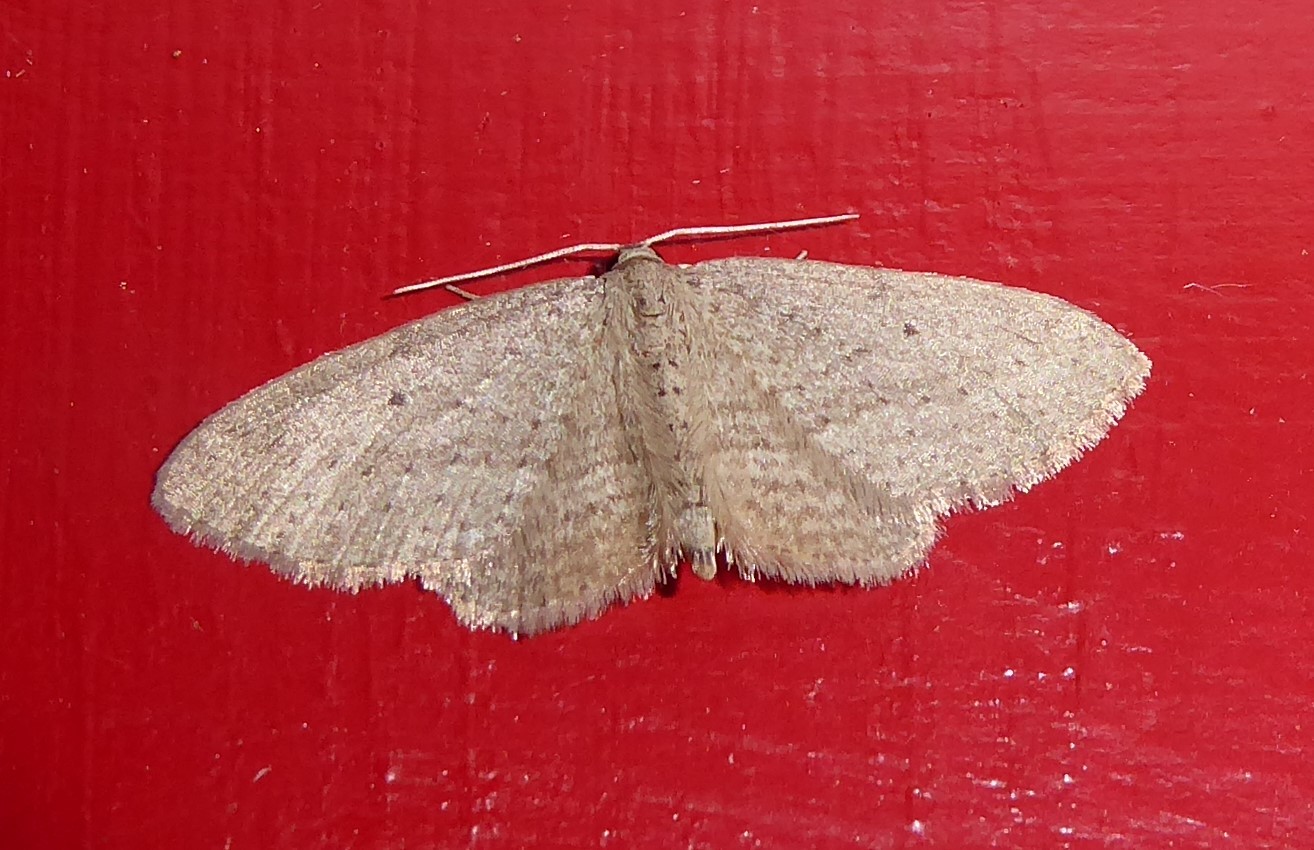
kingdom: Animalia
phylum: Arthropoda
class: Insecta
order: Lepidoptera
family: Geometridae
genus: Poecilasthena
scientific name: Poecilasthena schistaria
